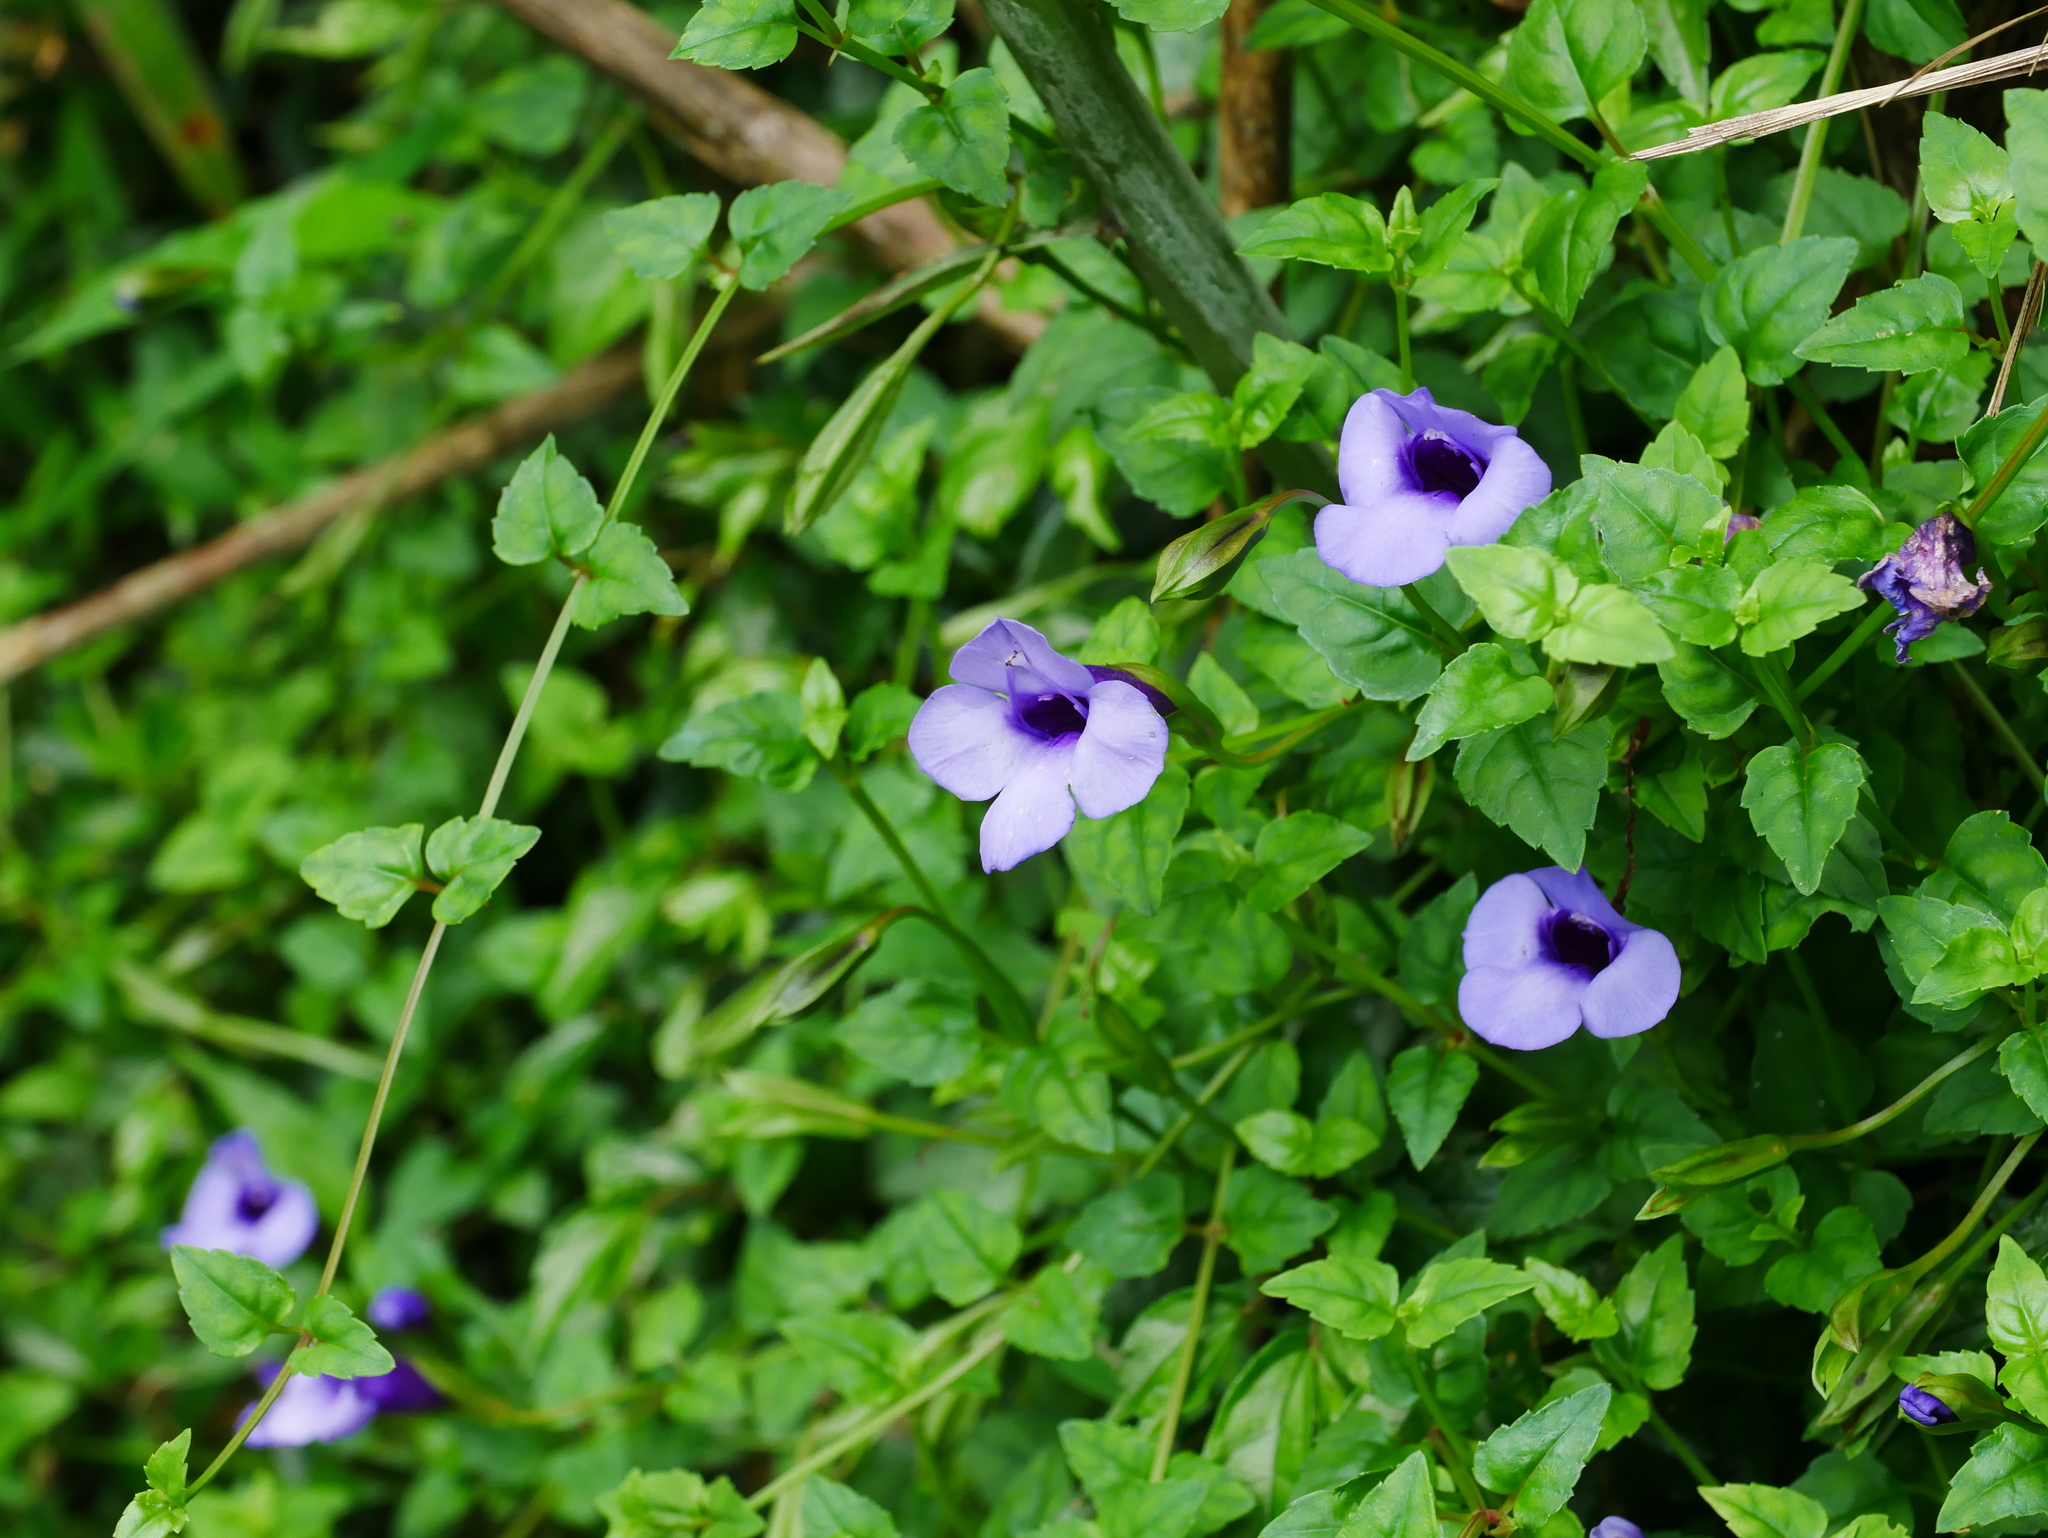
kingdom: Plantae
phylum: Tracheophyta
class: Magnoliopsida
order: Lamiales
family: Linderniaceae
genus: Torenia
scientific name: Torenia concolor
